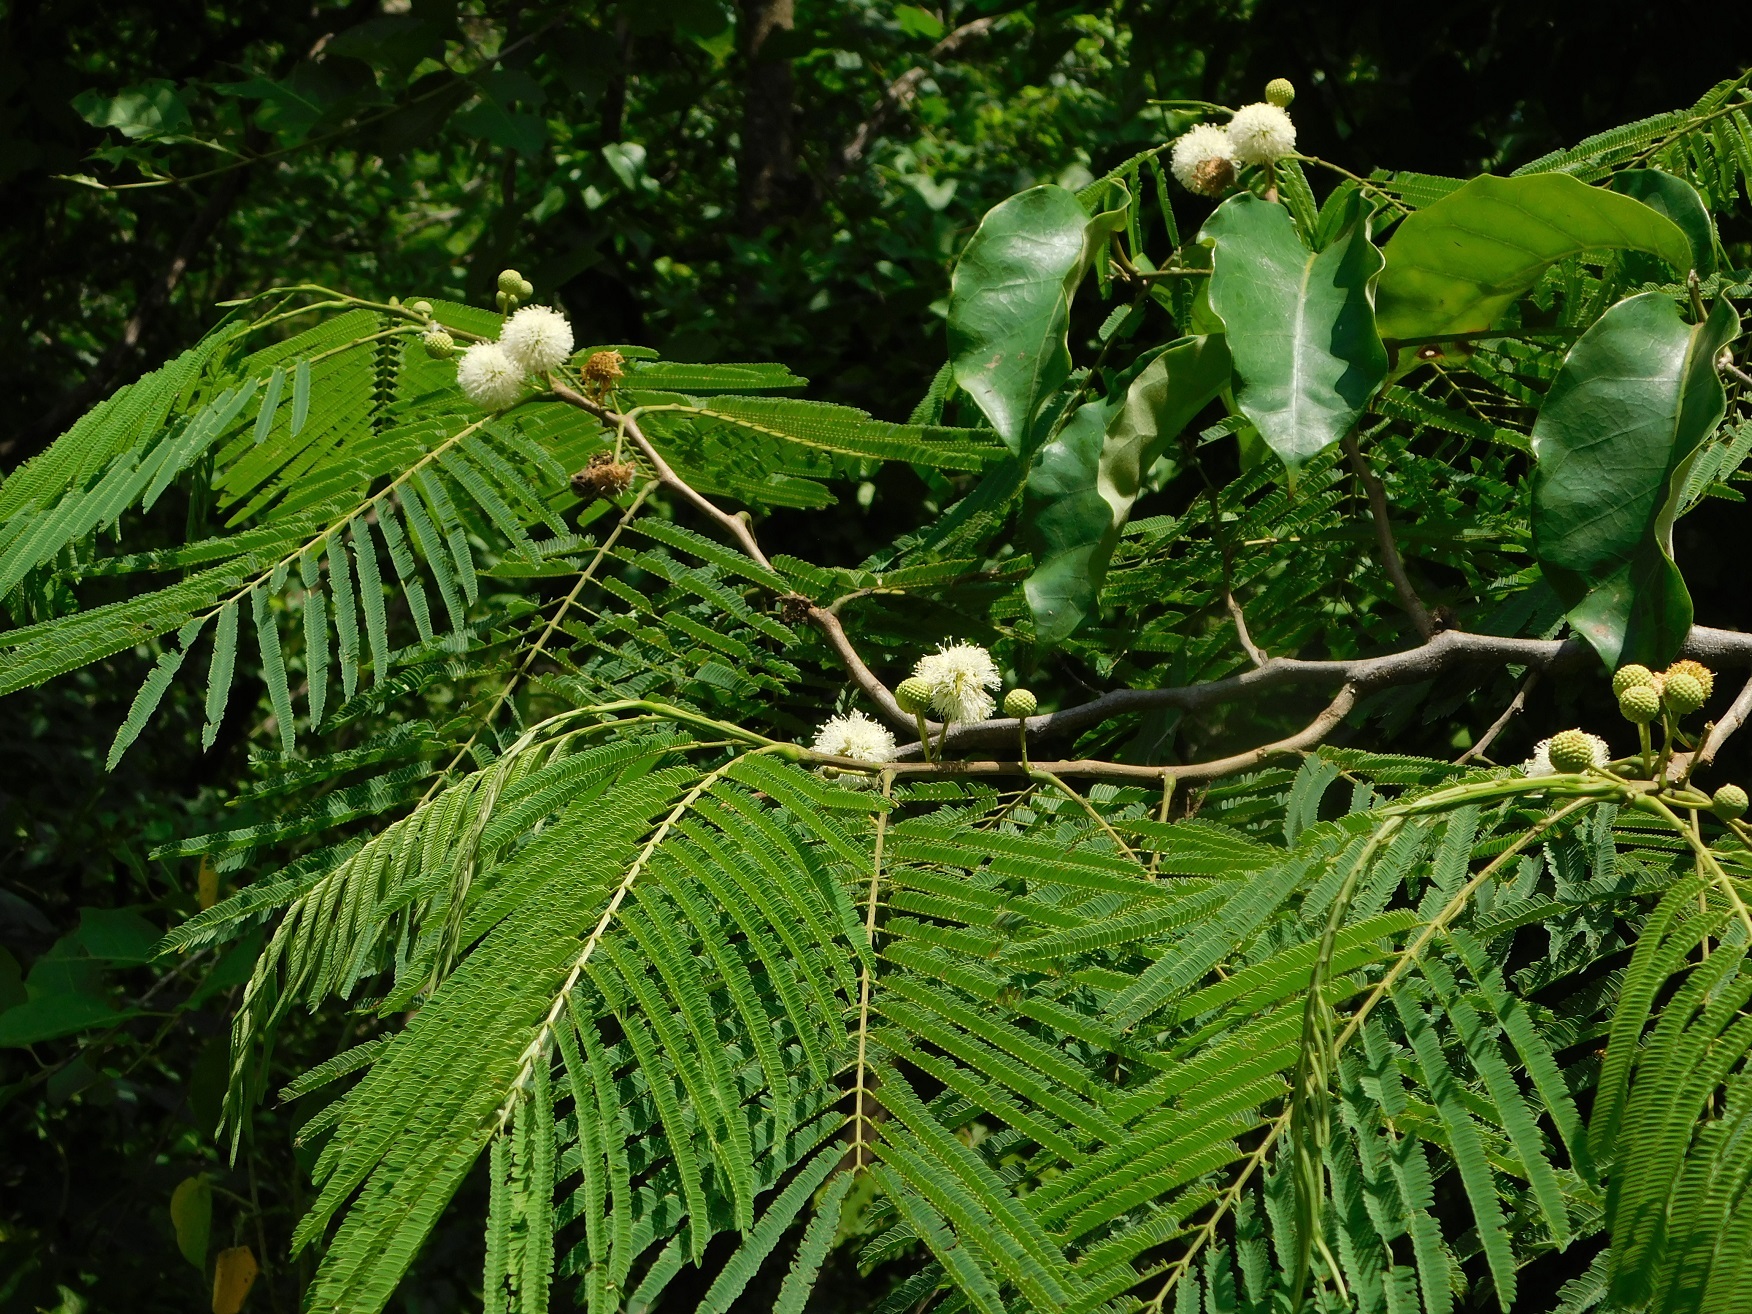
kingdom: Plantae
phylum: Tracheophyta
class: Magnoliopsida
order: Fabales
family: Fabaceae
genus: Leucaena
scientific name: Leucaena diversifolia
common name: Red leucaena
